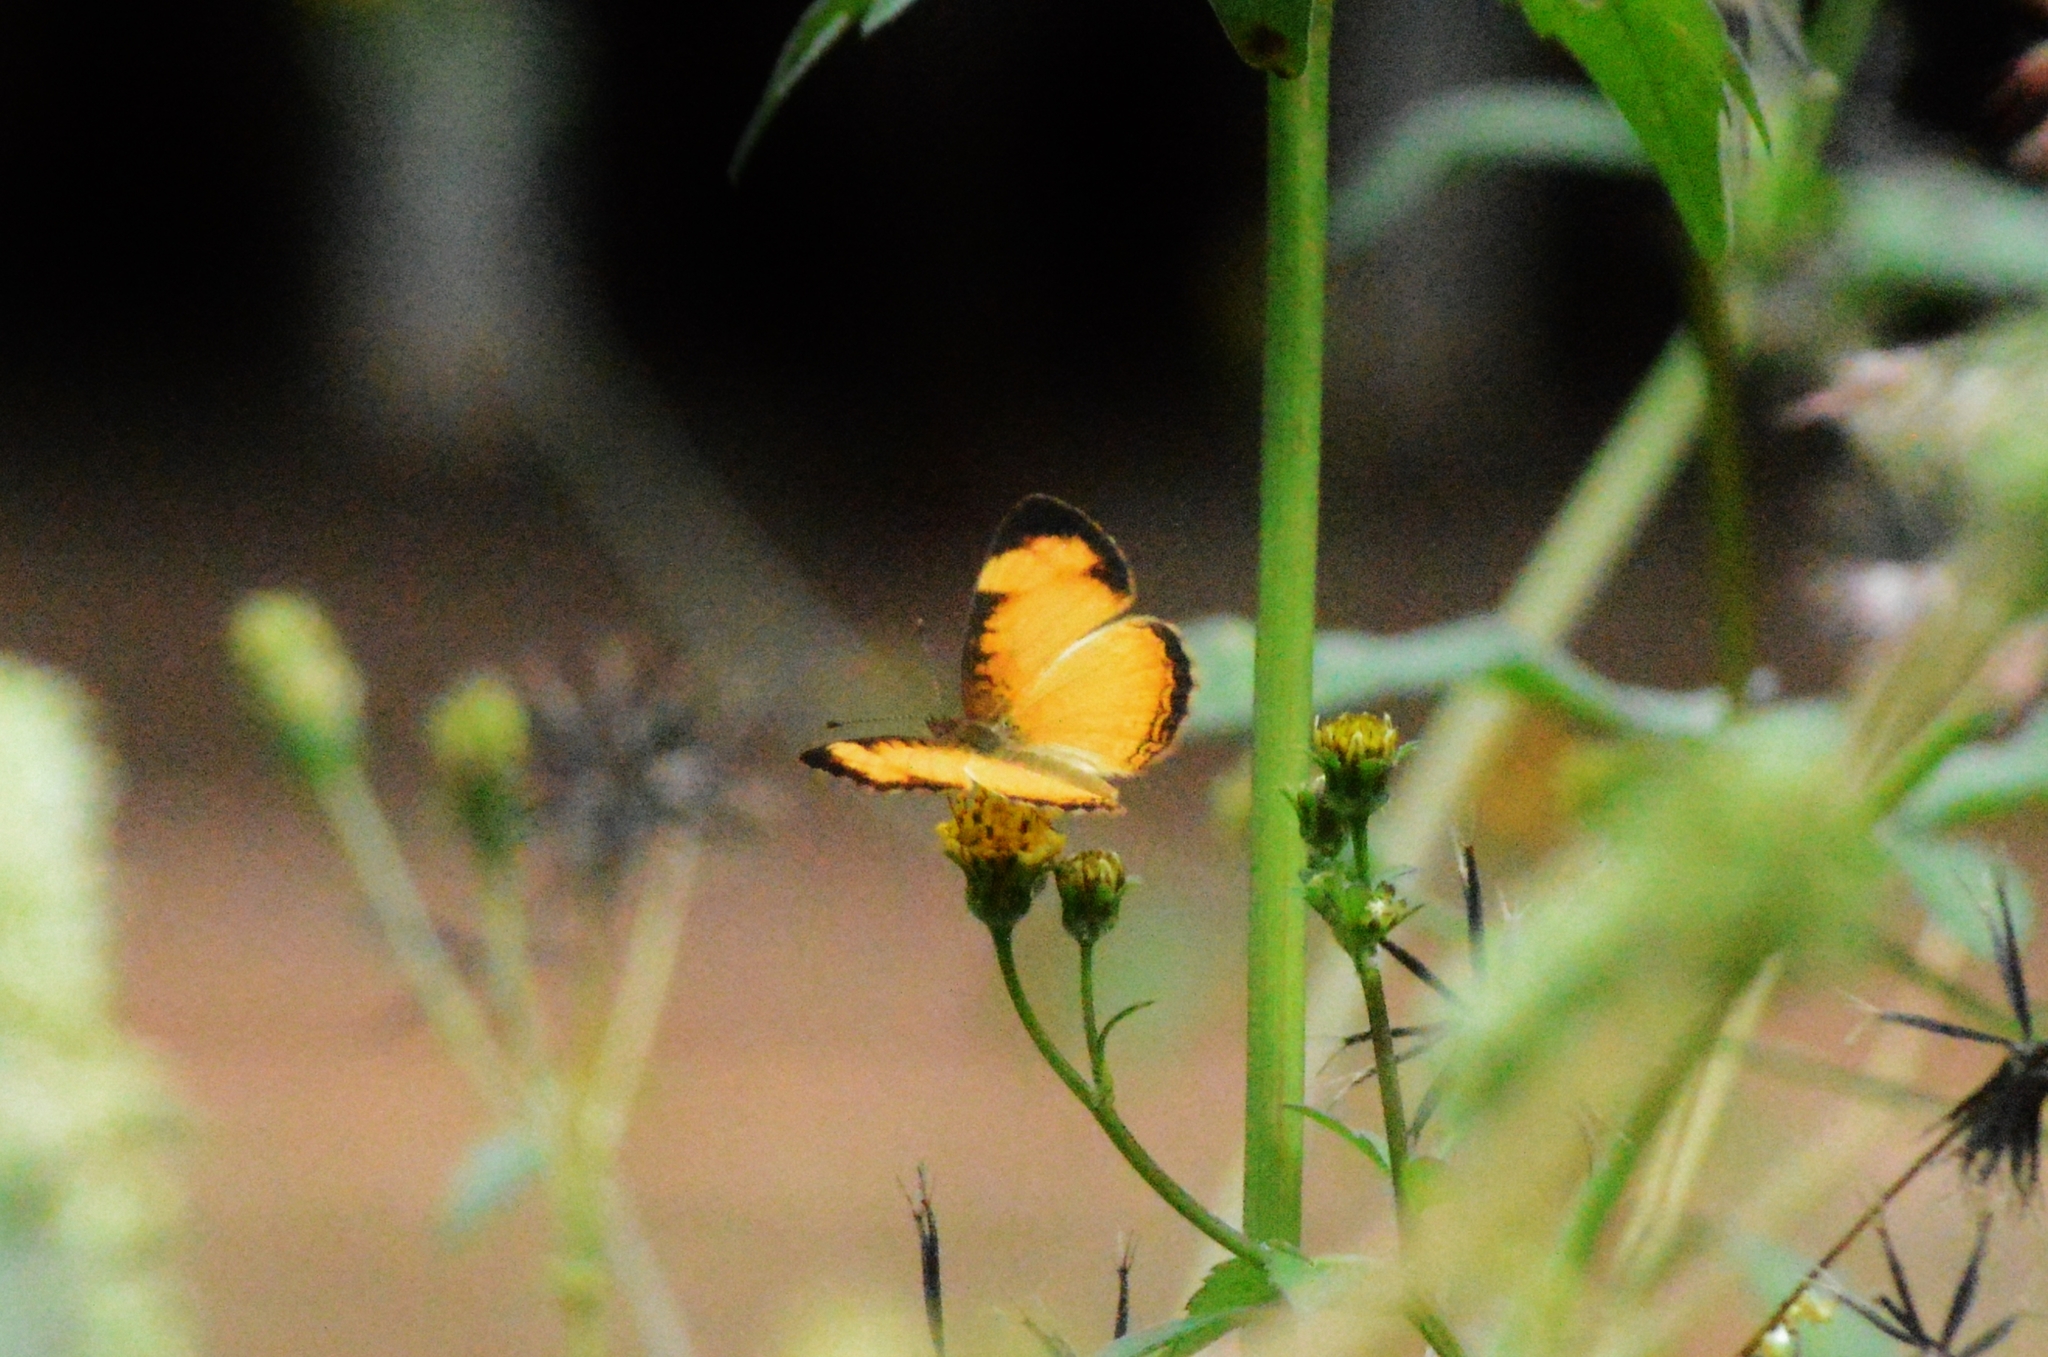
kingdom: Animalia
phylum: Arthropoda
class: Insecta
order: Lepidoptera
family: Nymphalidae
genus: Tegosa
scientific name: Tegosa claudina
